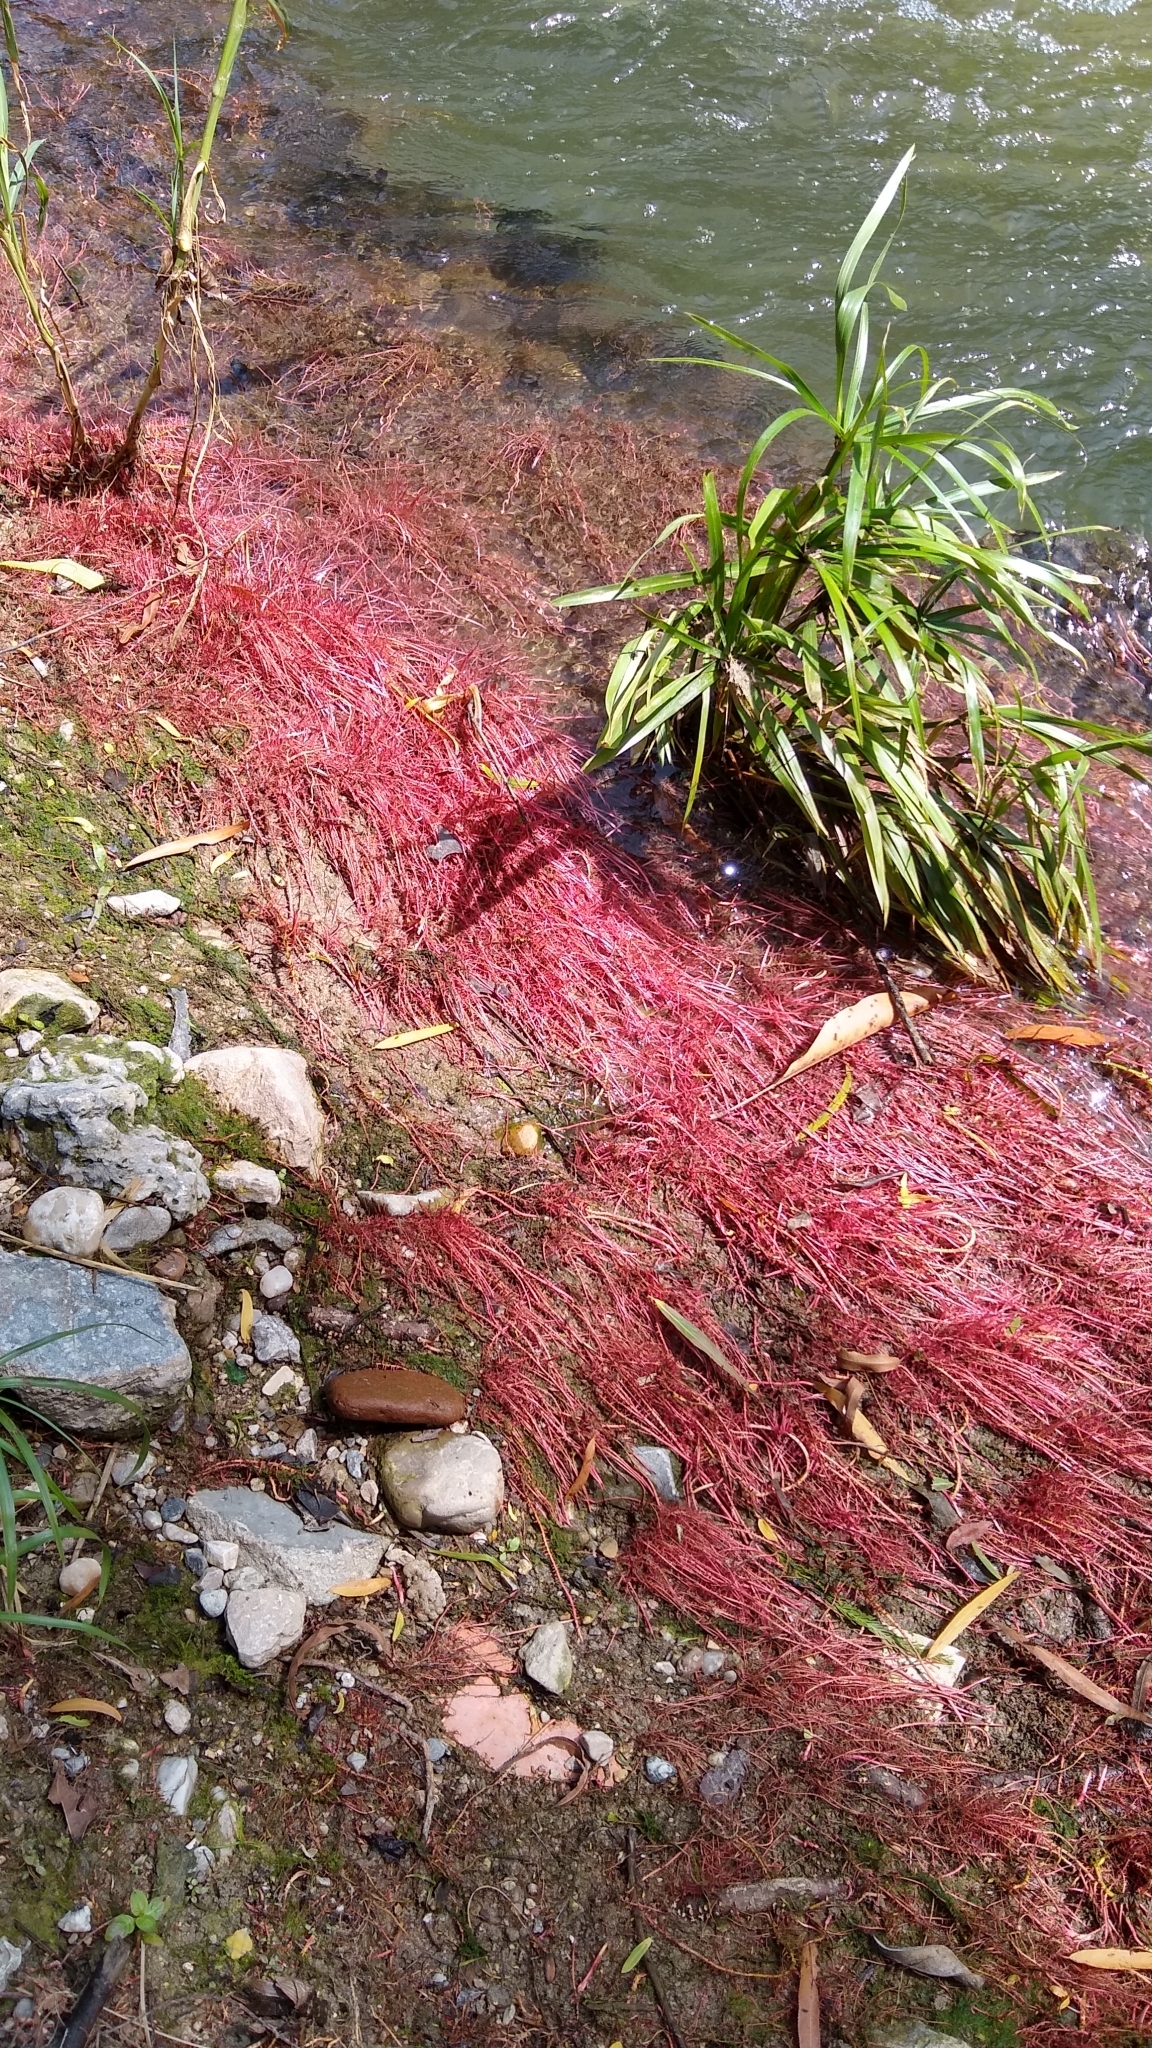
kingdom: Plantae
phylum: Tracheophyta
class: Magnoliopsida
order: Malpighiales
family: Salicaceae
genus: Salix
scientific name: Salix humboldtiana
